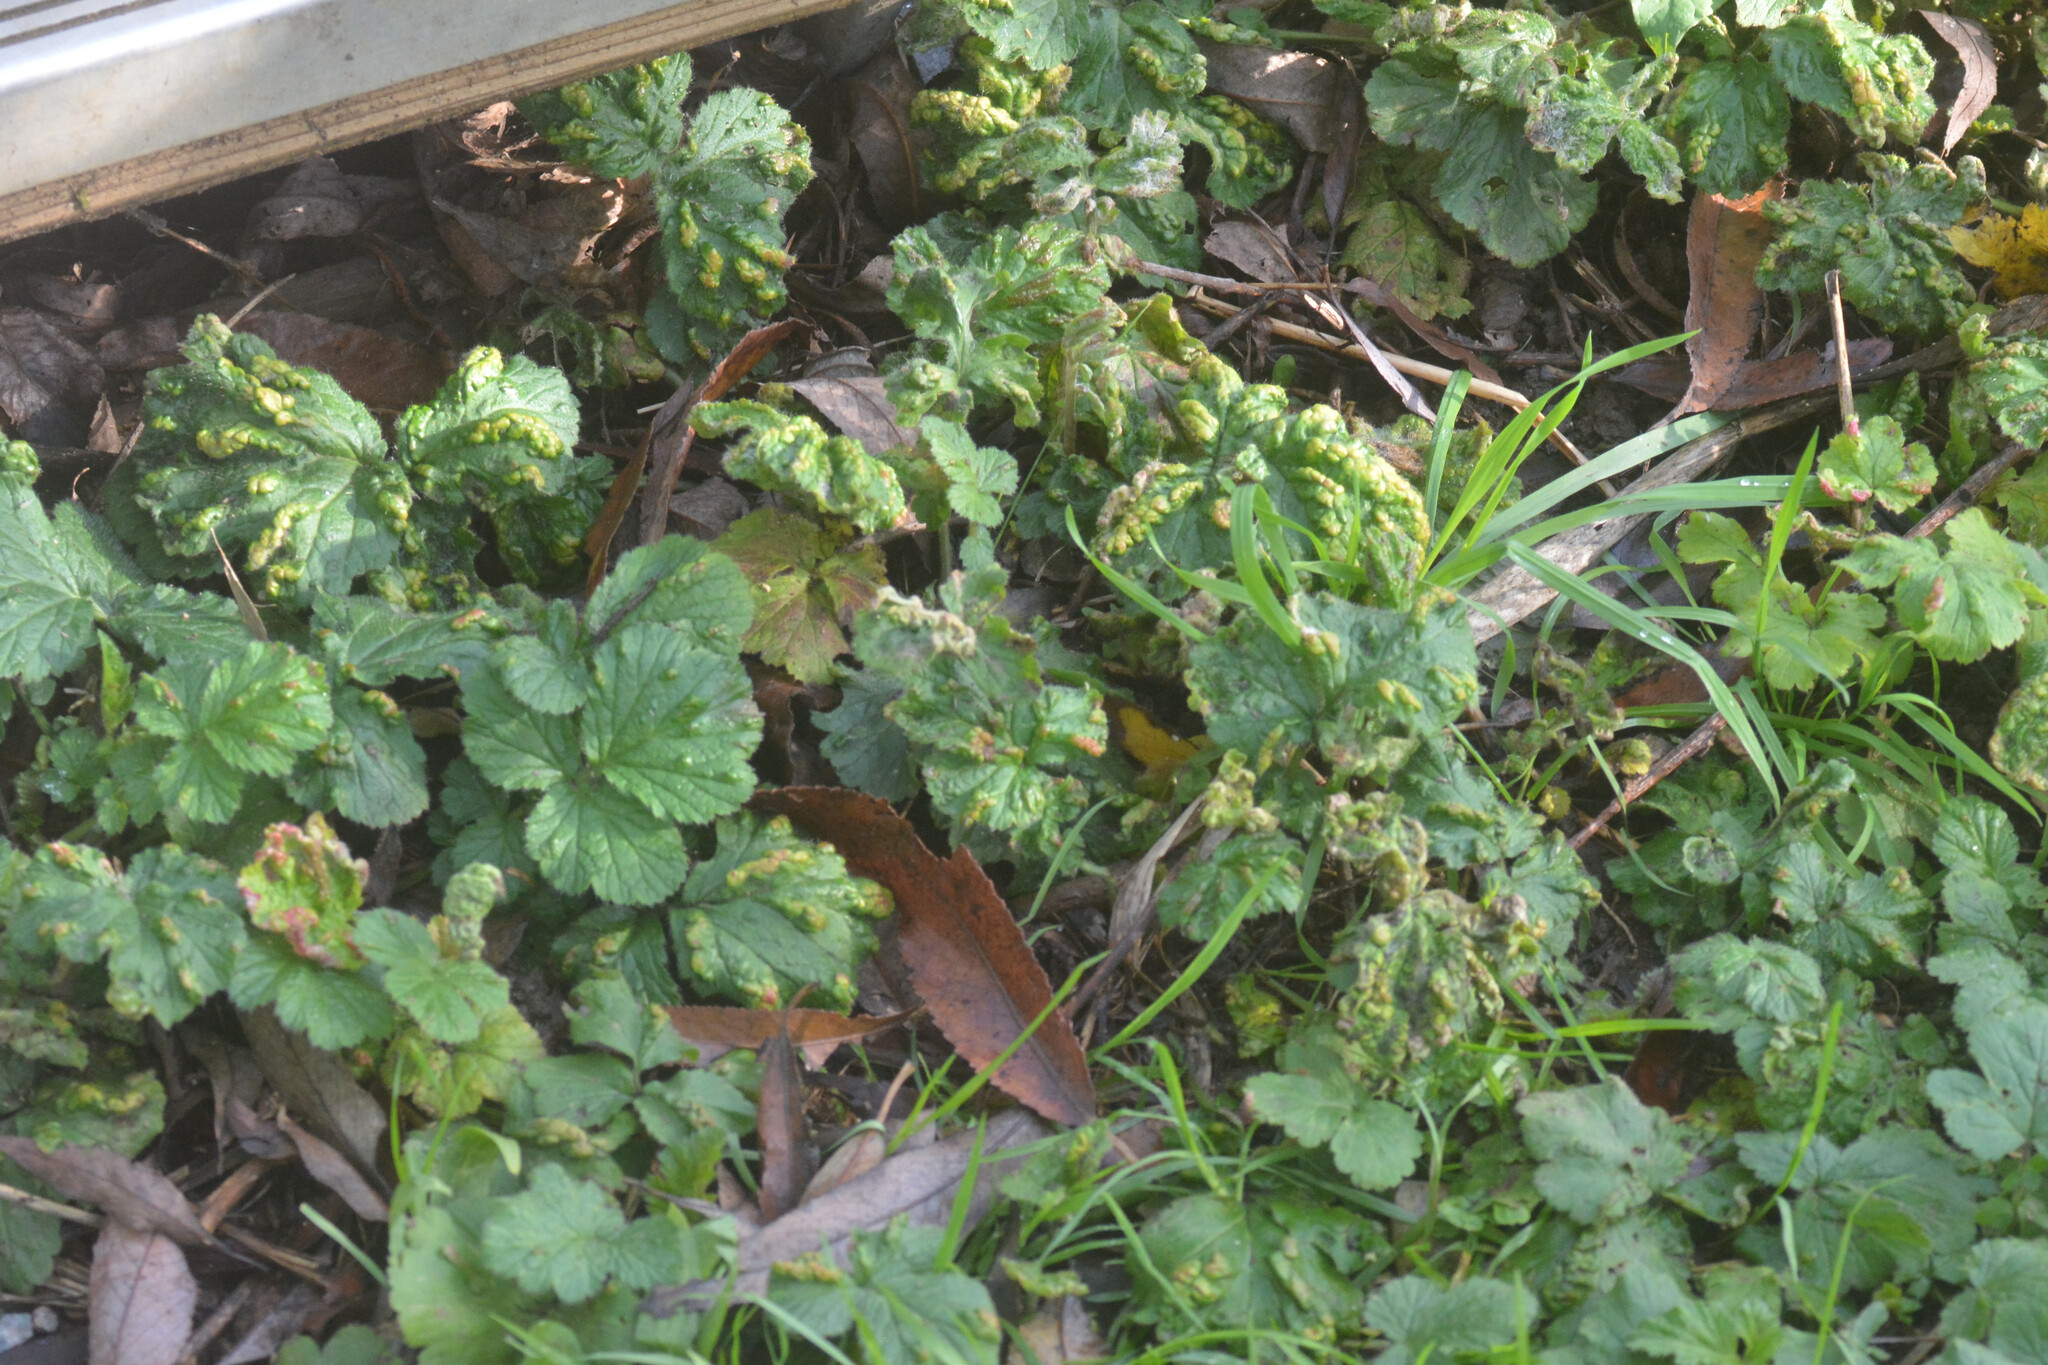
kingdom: Animalia
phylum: Arthropoda
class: Arachnida
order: Trombidiformes
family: Eriophyidae
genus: Cecidophyes
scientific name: Cecidophyes nudus
